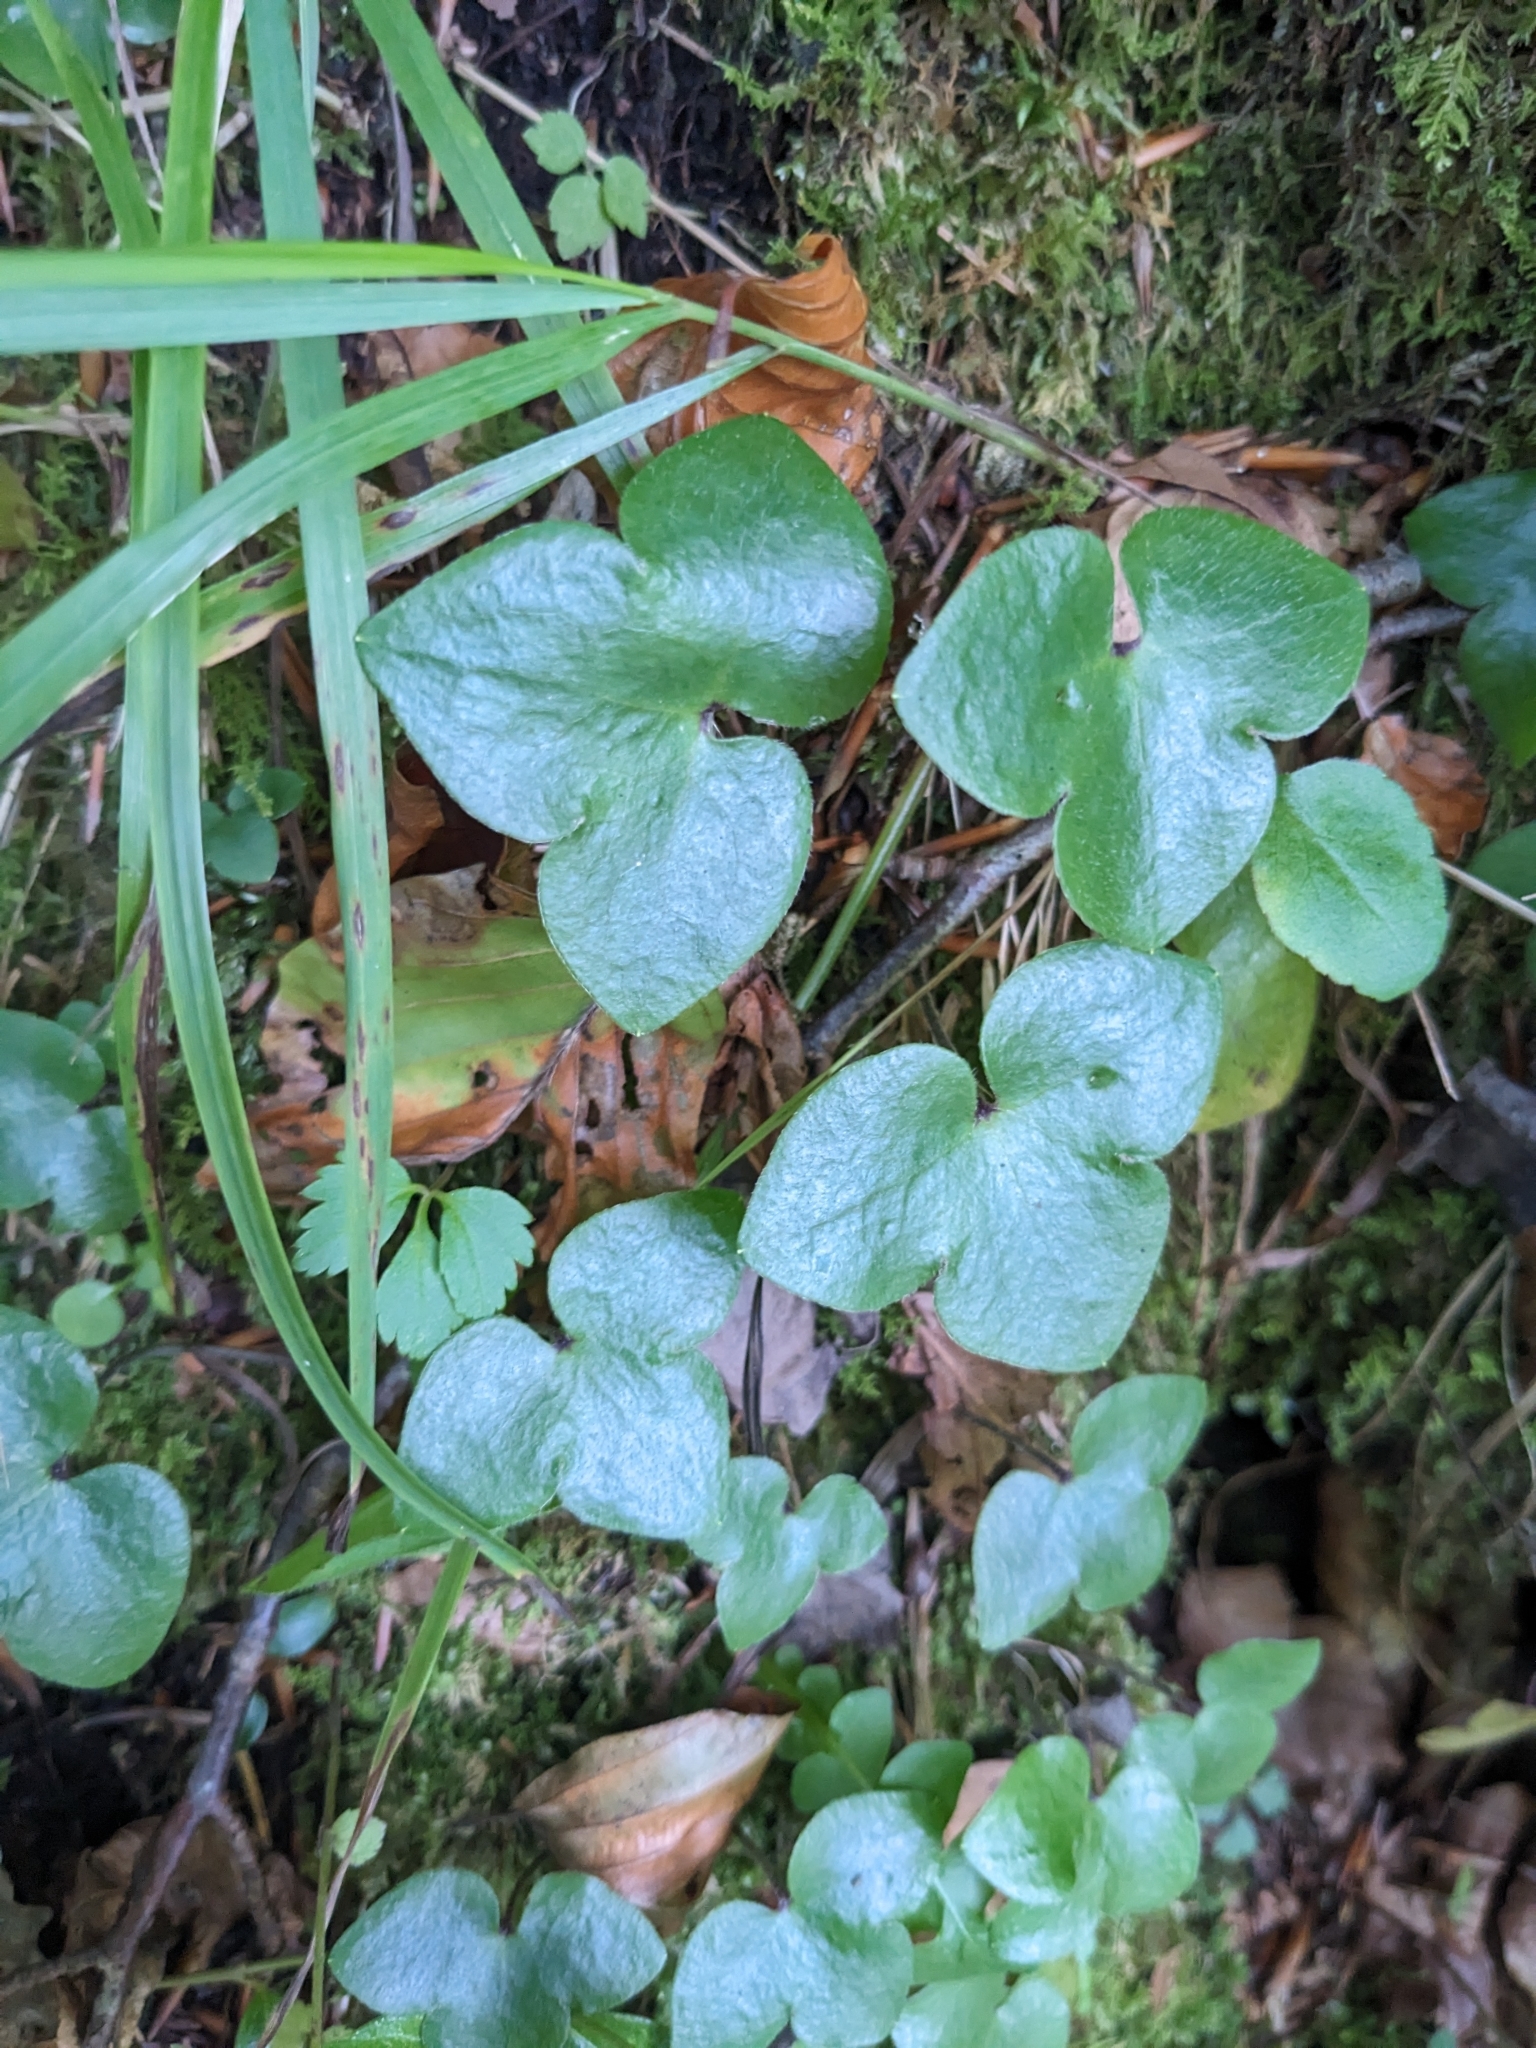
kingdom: Plantae
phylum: Tracheophyta
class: Magnoliopsida
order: Ranunculales
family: Ranunculaceae
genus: Hepatica
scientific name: Hepatica nobilis
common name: Liverleaf
